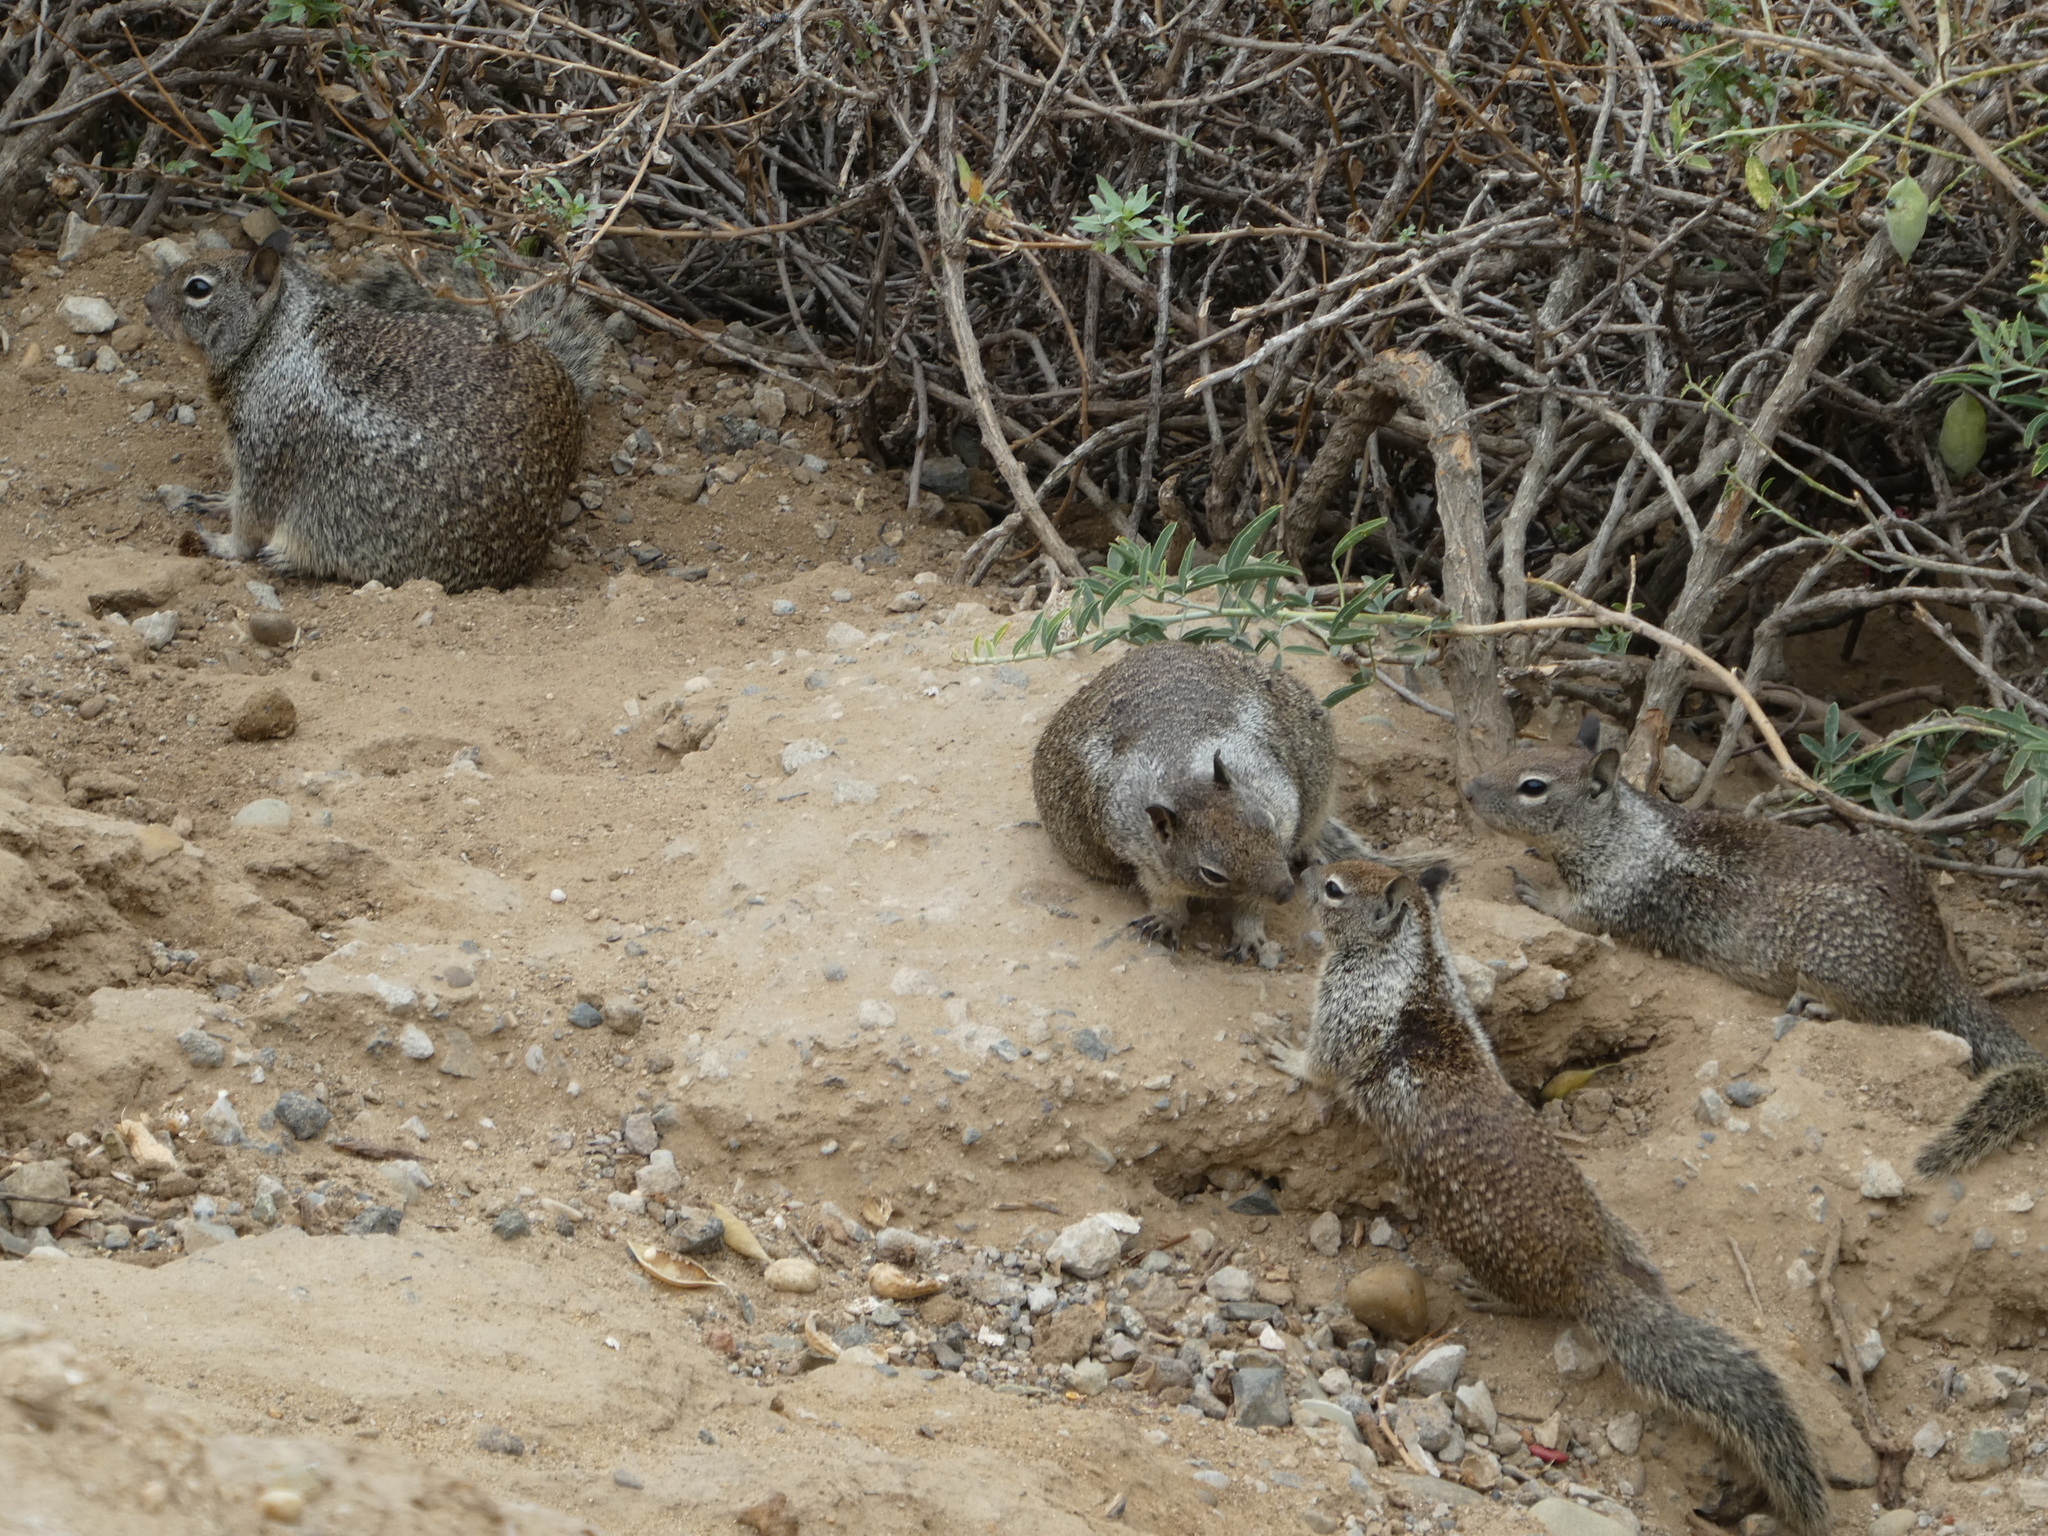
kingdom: Animalia
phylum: Chordata
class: Mammalia
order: Rodentia
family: Sciuridae
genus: Otospermophilus
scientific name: Otospermophilus beecheyi
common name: California ground squirrel
